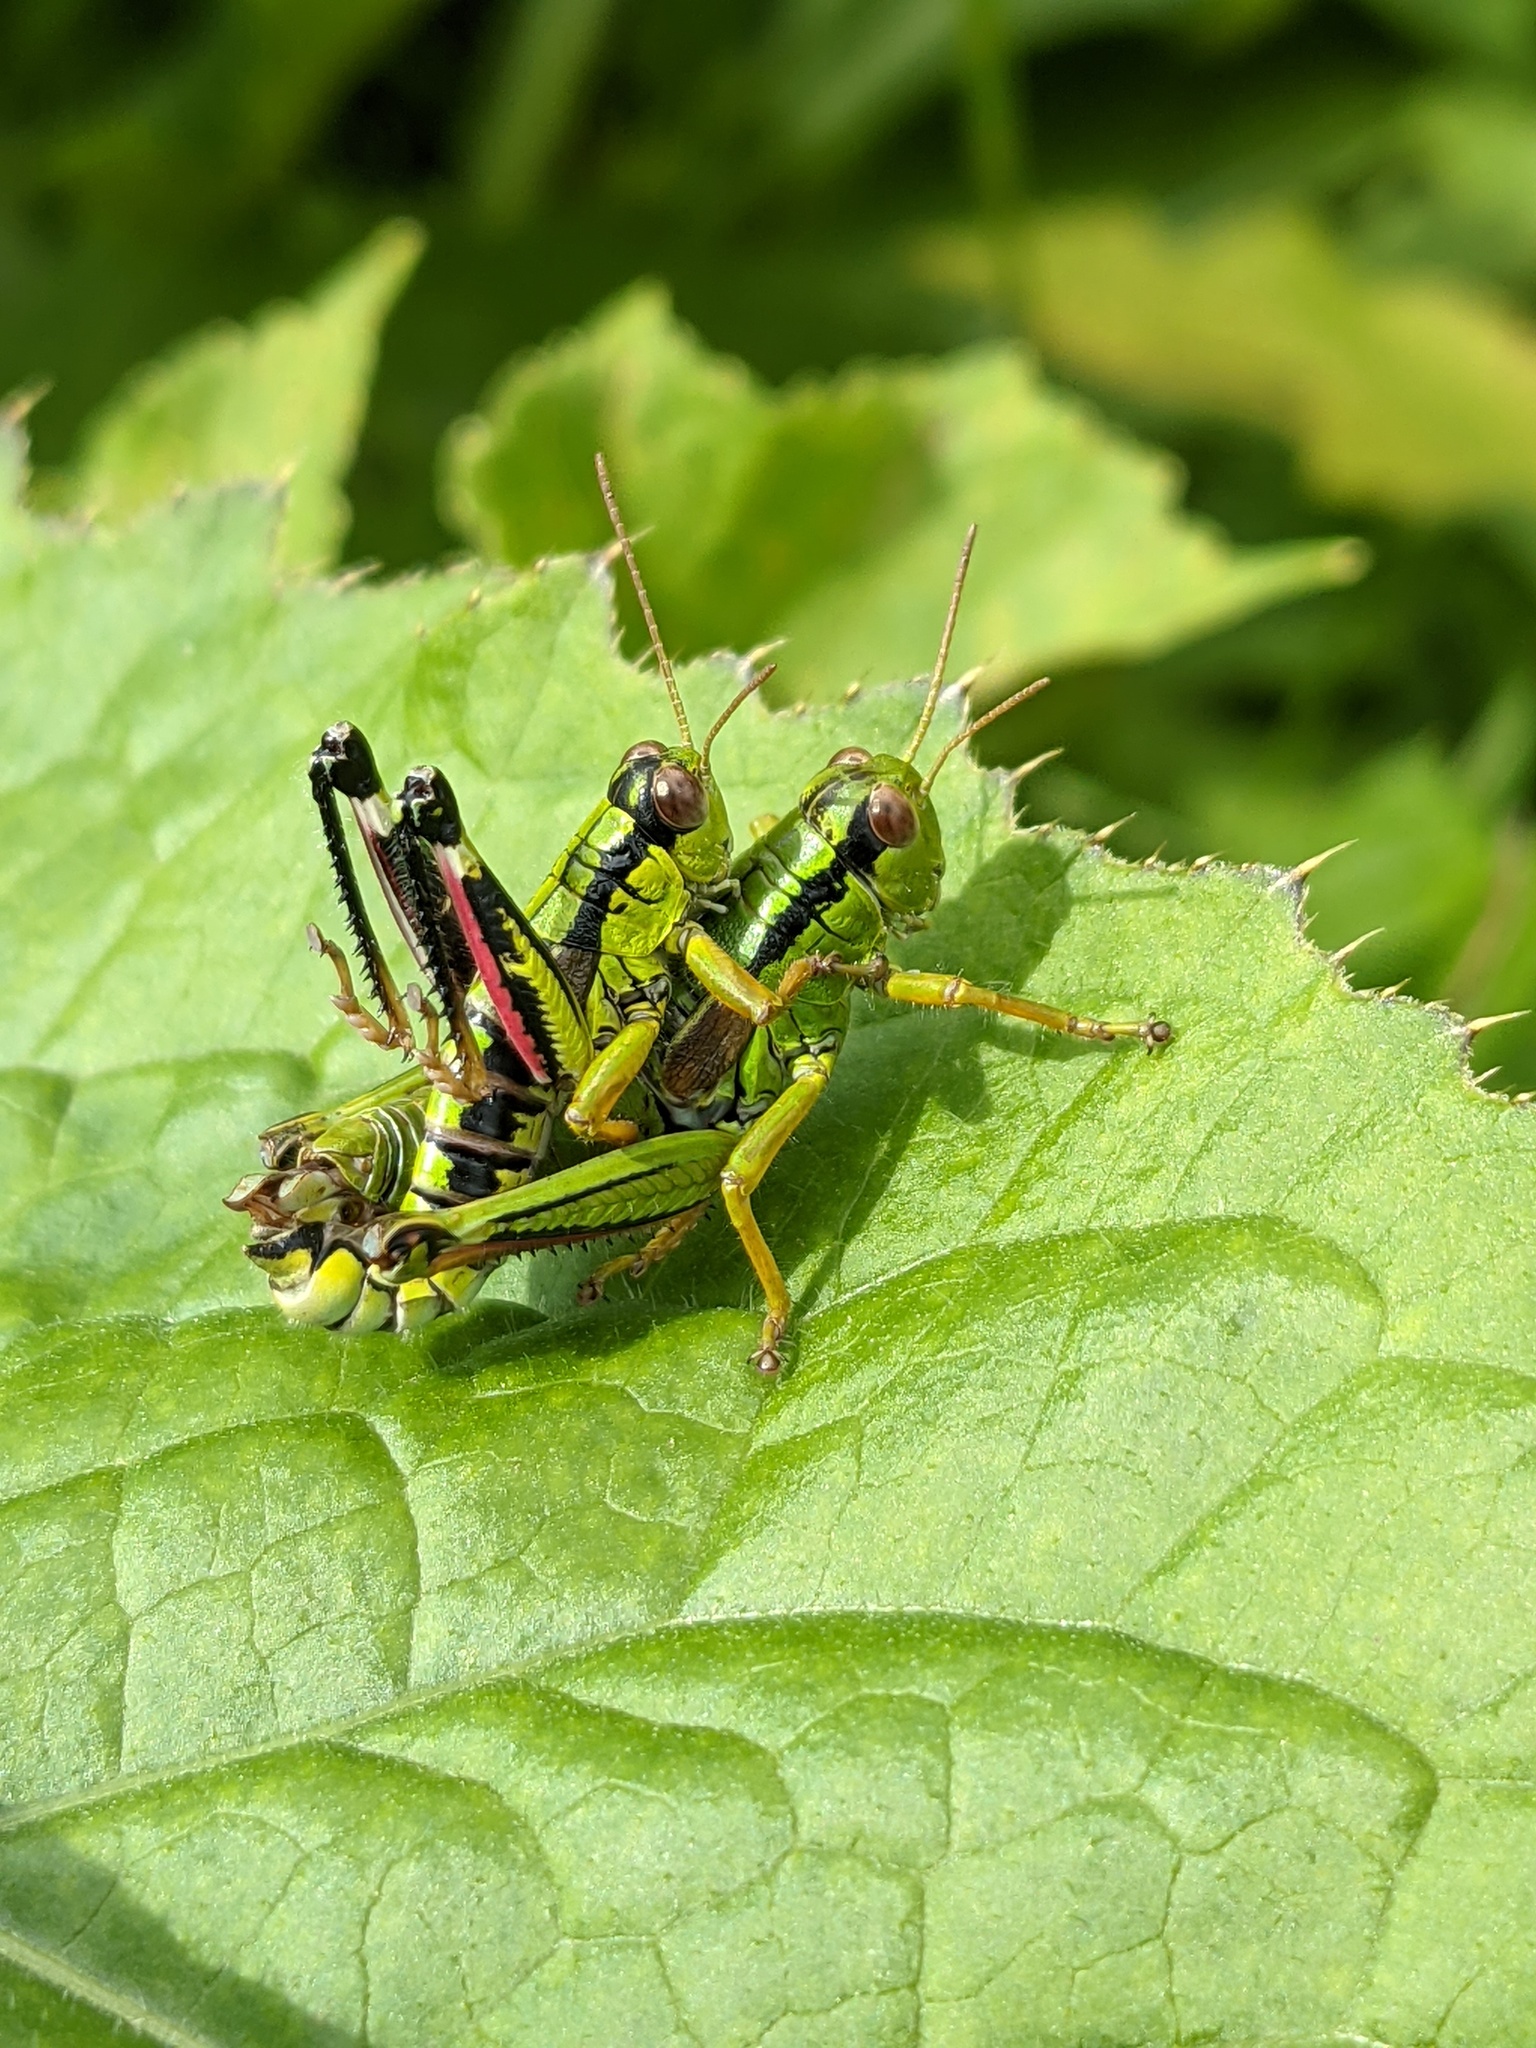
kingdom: Animalia
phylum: Arthropoda
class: Insecta
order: Orthoptera
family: Acrididae
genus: Miramella
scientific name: Miramella alpina
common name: Green mountain grasshopper
